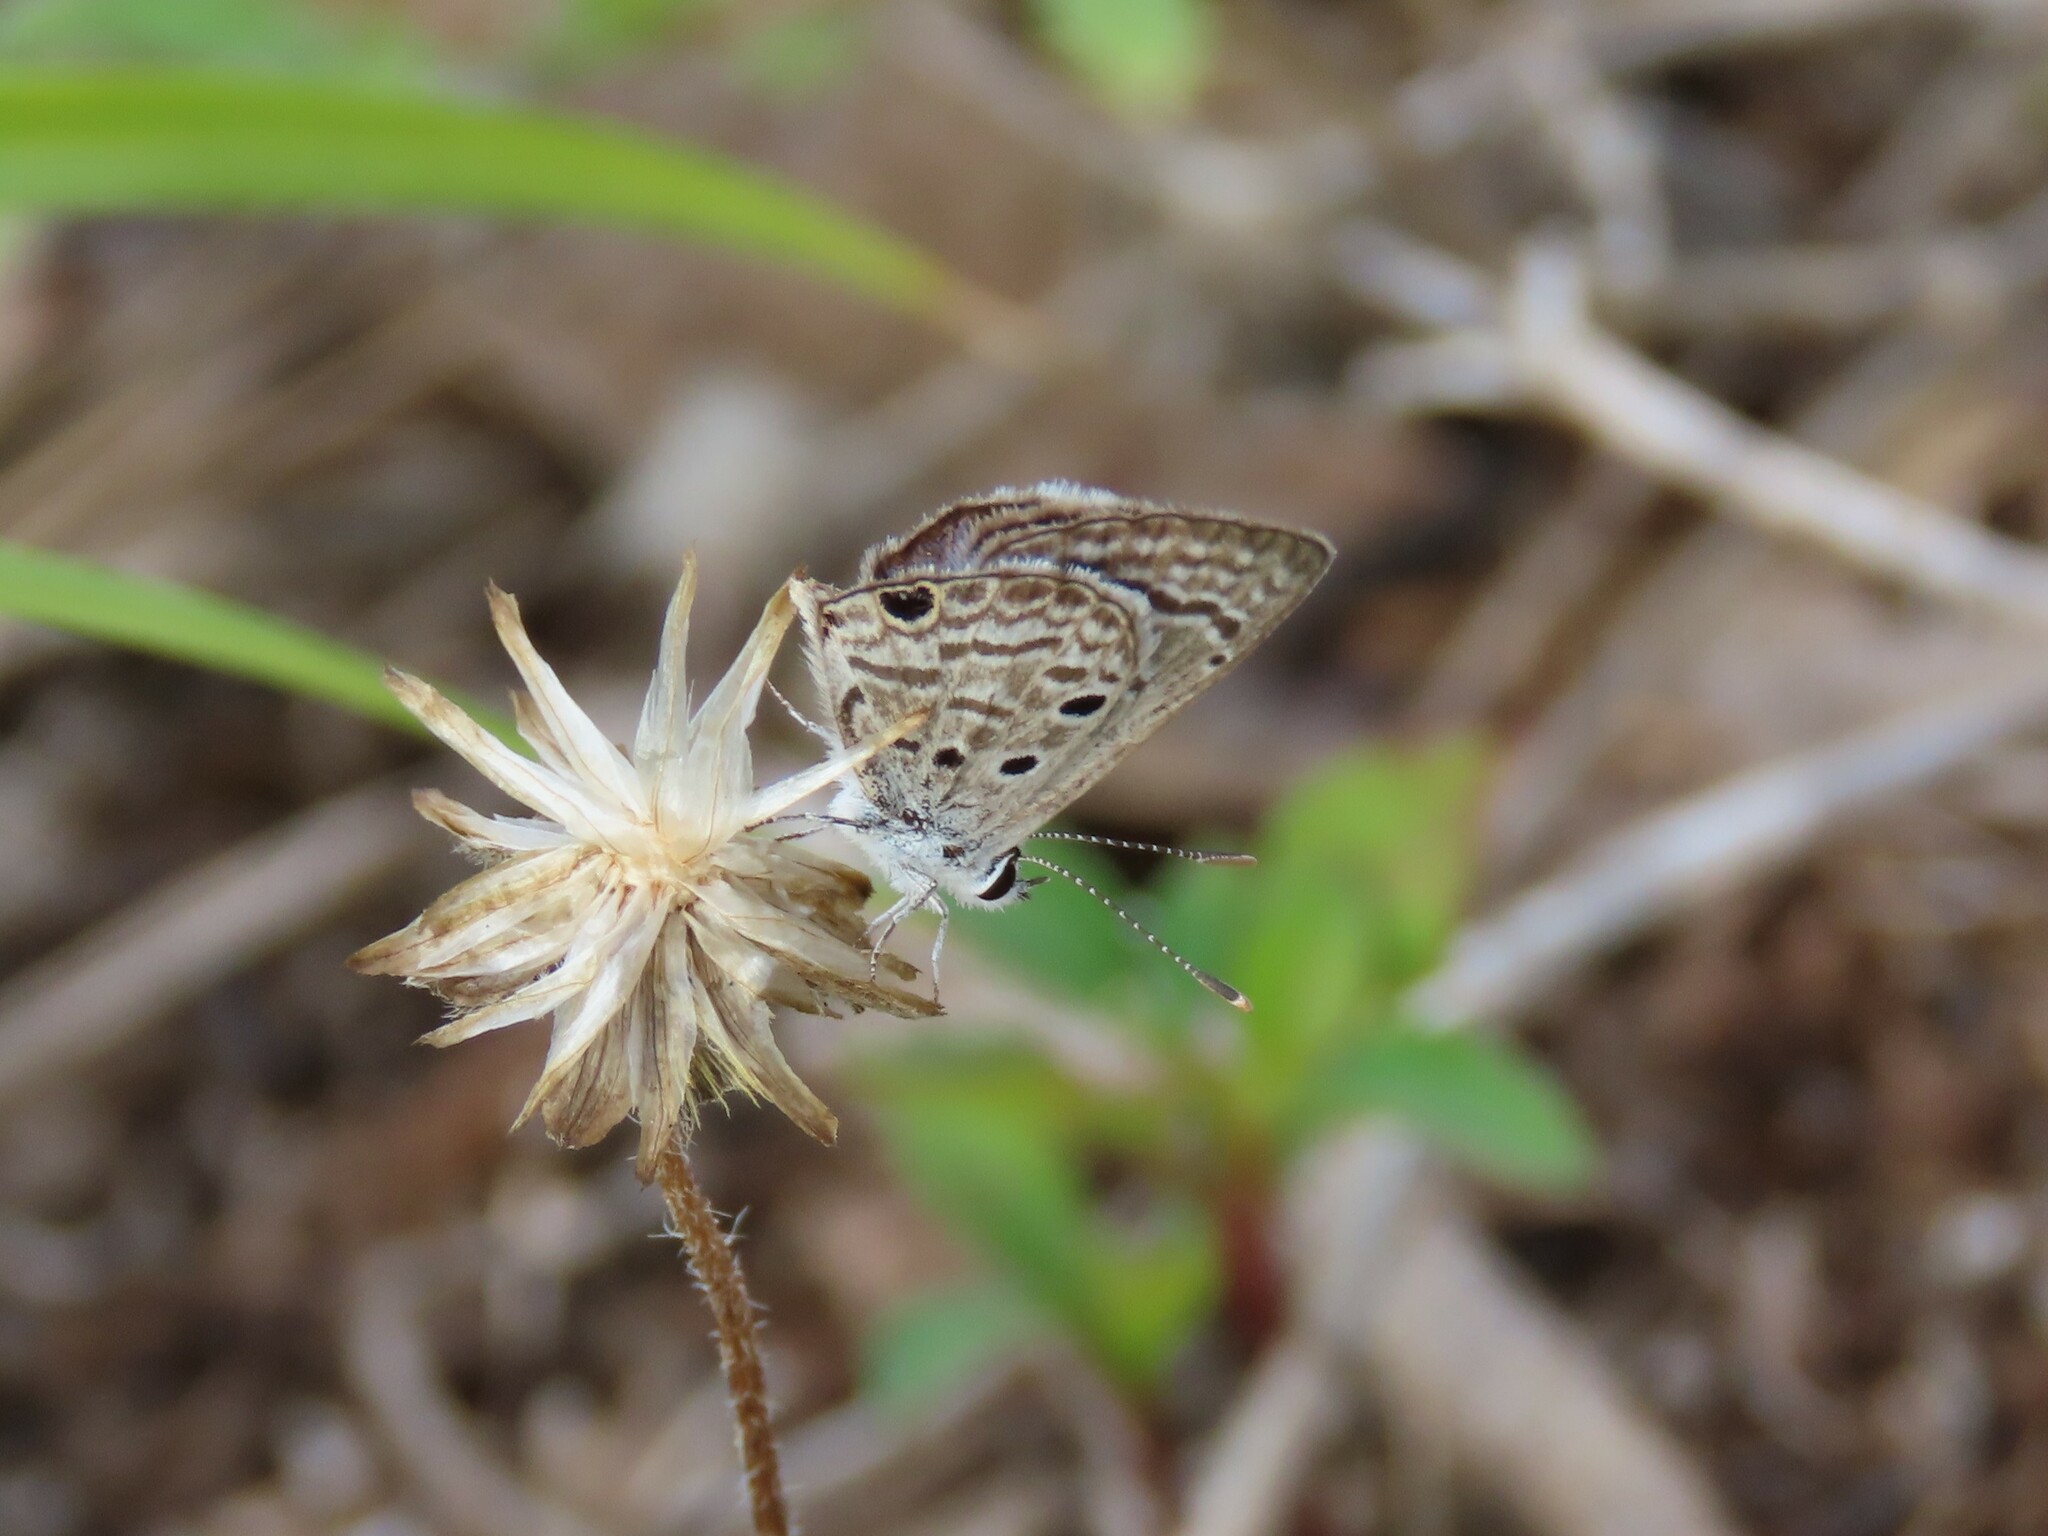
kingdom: Animalia
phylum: Arthropoda
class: Insecta
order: Lepidoptera
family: Lycaenidae
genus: Hemiargus
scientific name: Hemiargus ceraunus
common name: Ceraunus blue
